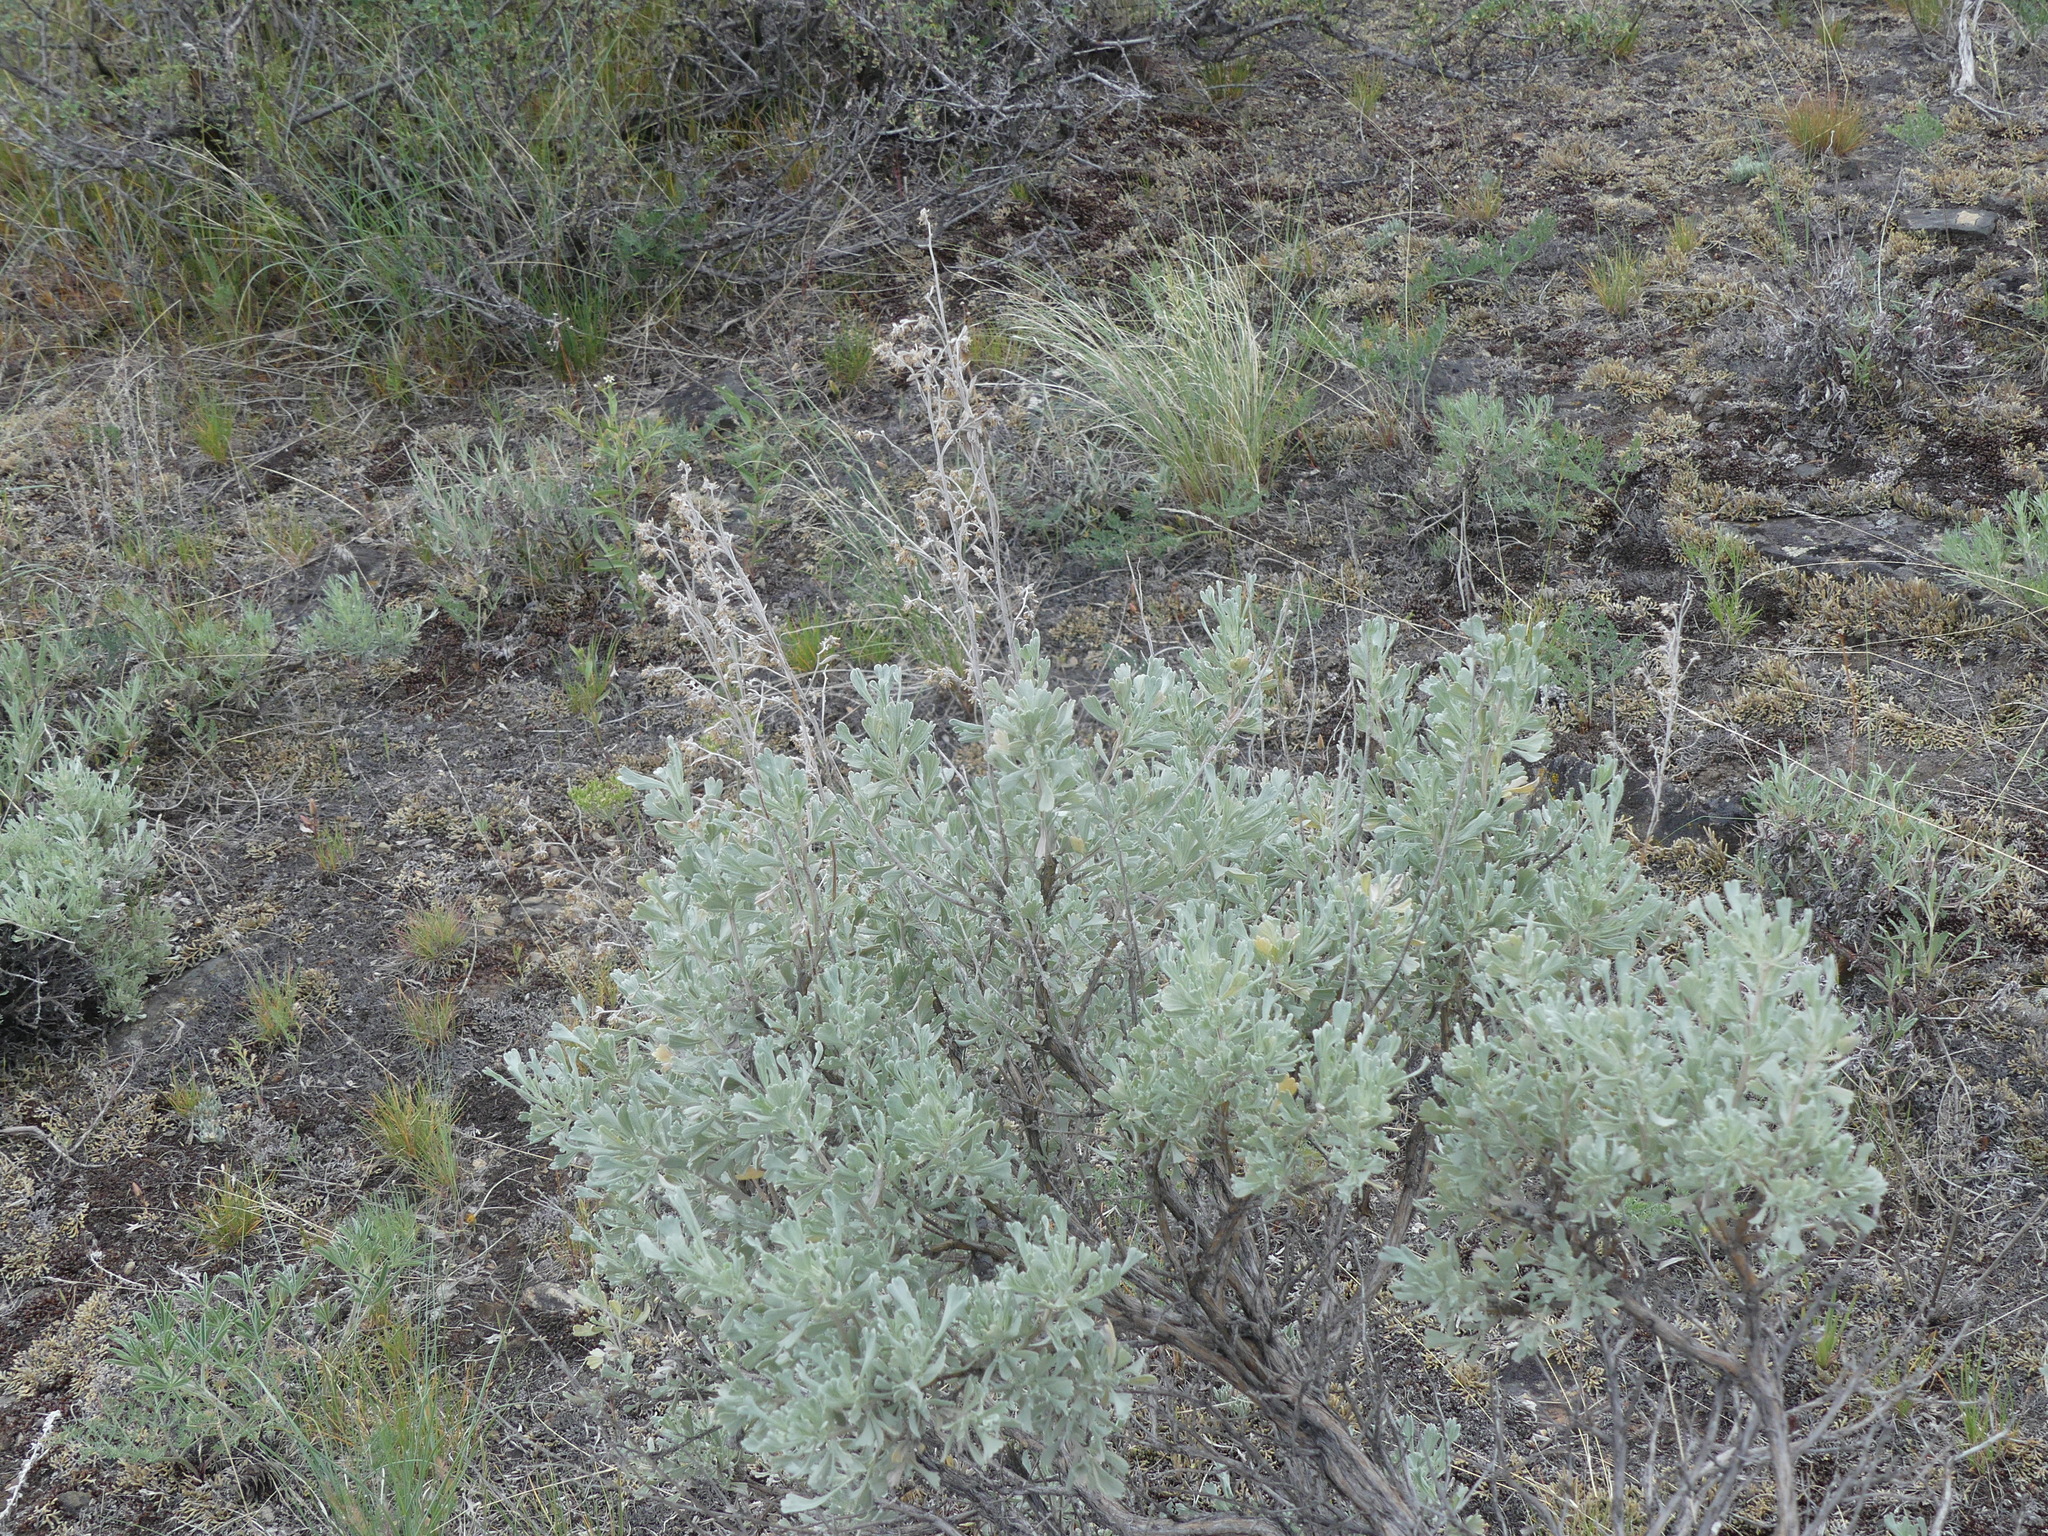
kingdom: Plantae
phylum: Tracheophyta
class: Magnoliopsida
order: Asterales
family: Asteraceae
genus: Artemisia
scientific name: Artemisia tridentata
